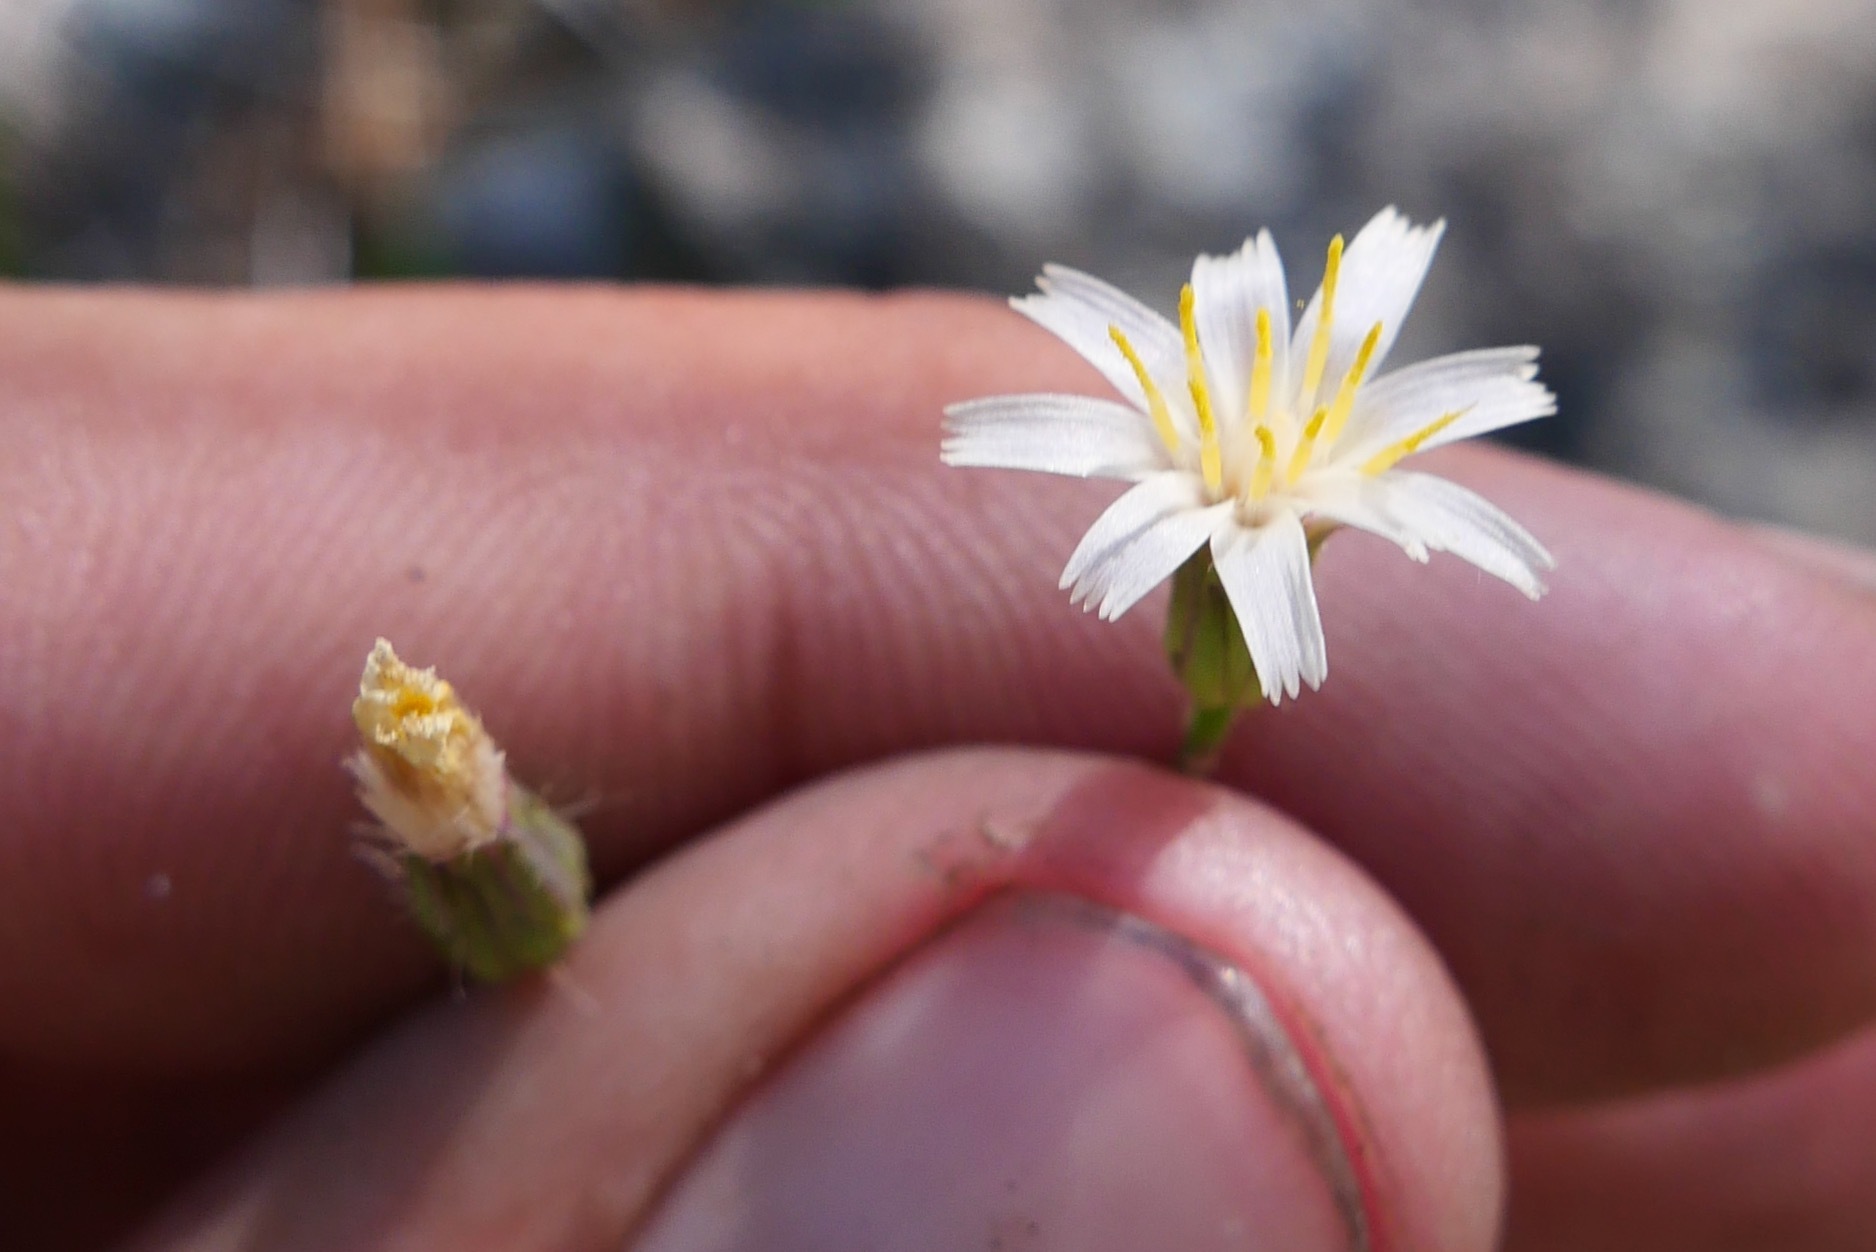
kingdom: Plantae
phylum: Tracheophyta
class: Magnoliopsida
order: Asterales
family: Asteraceae
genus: Hieracium
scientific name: Hieracium albiflorum
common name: White hawkweed
